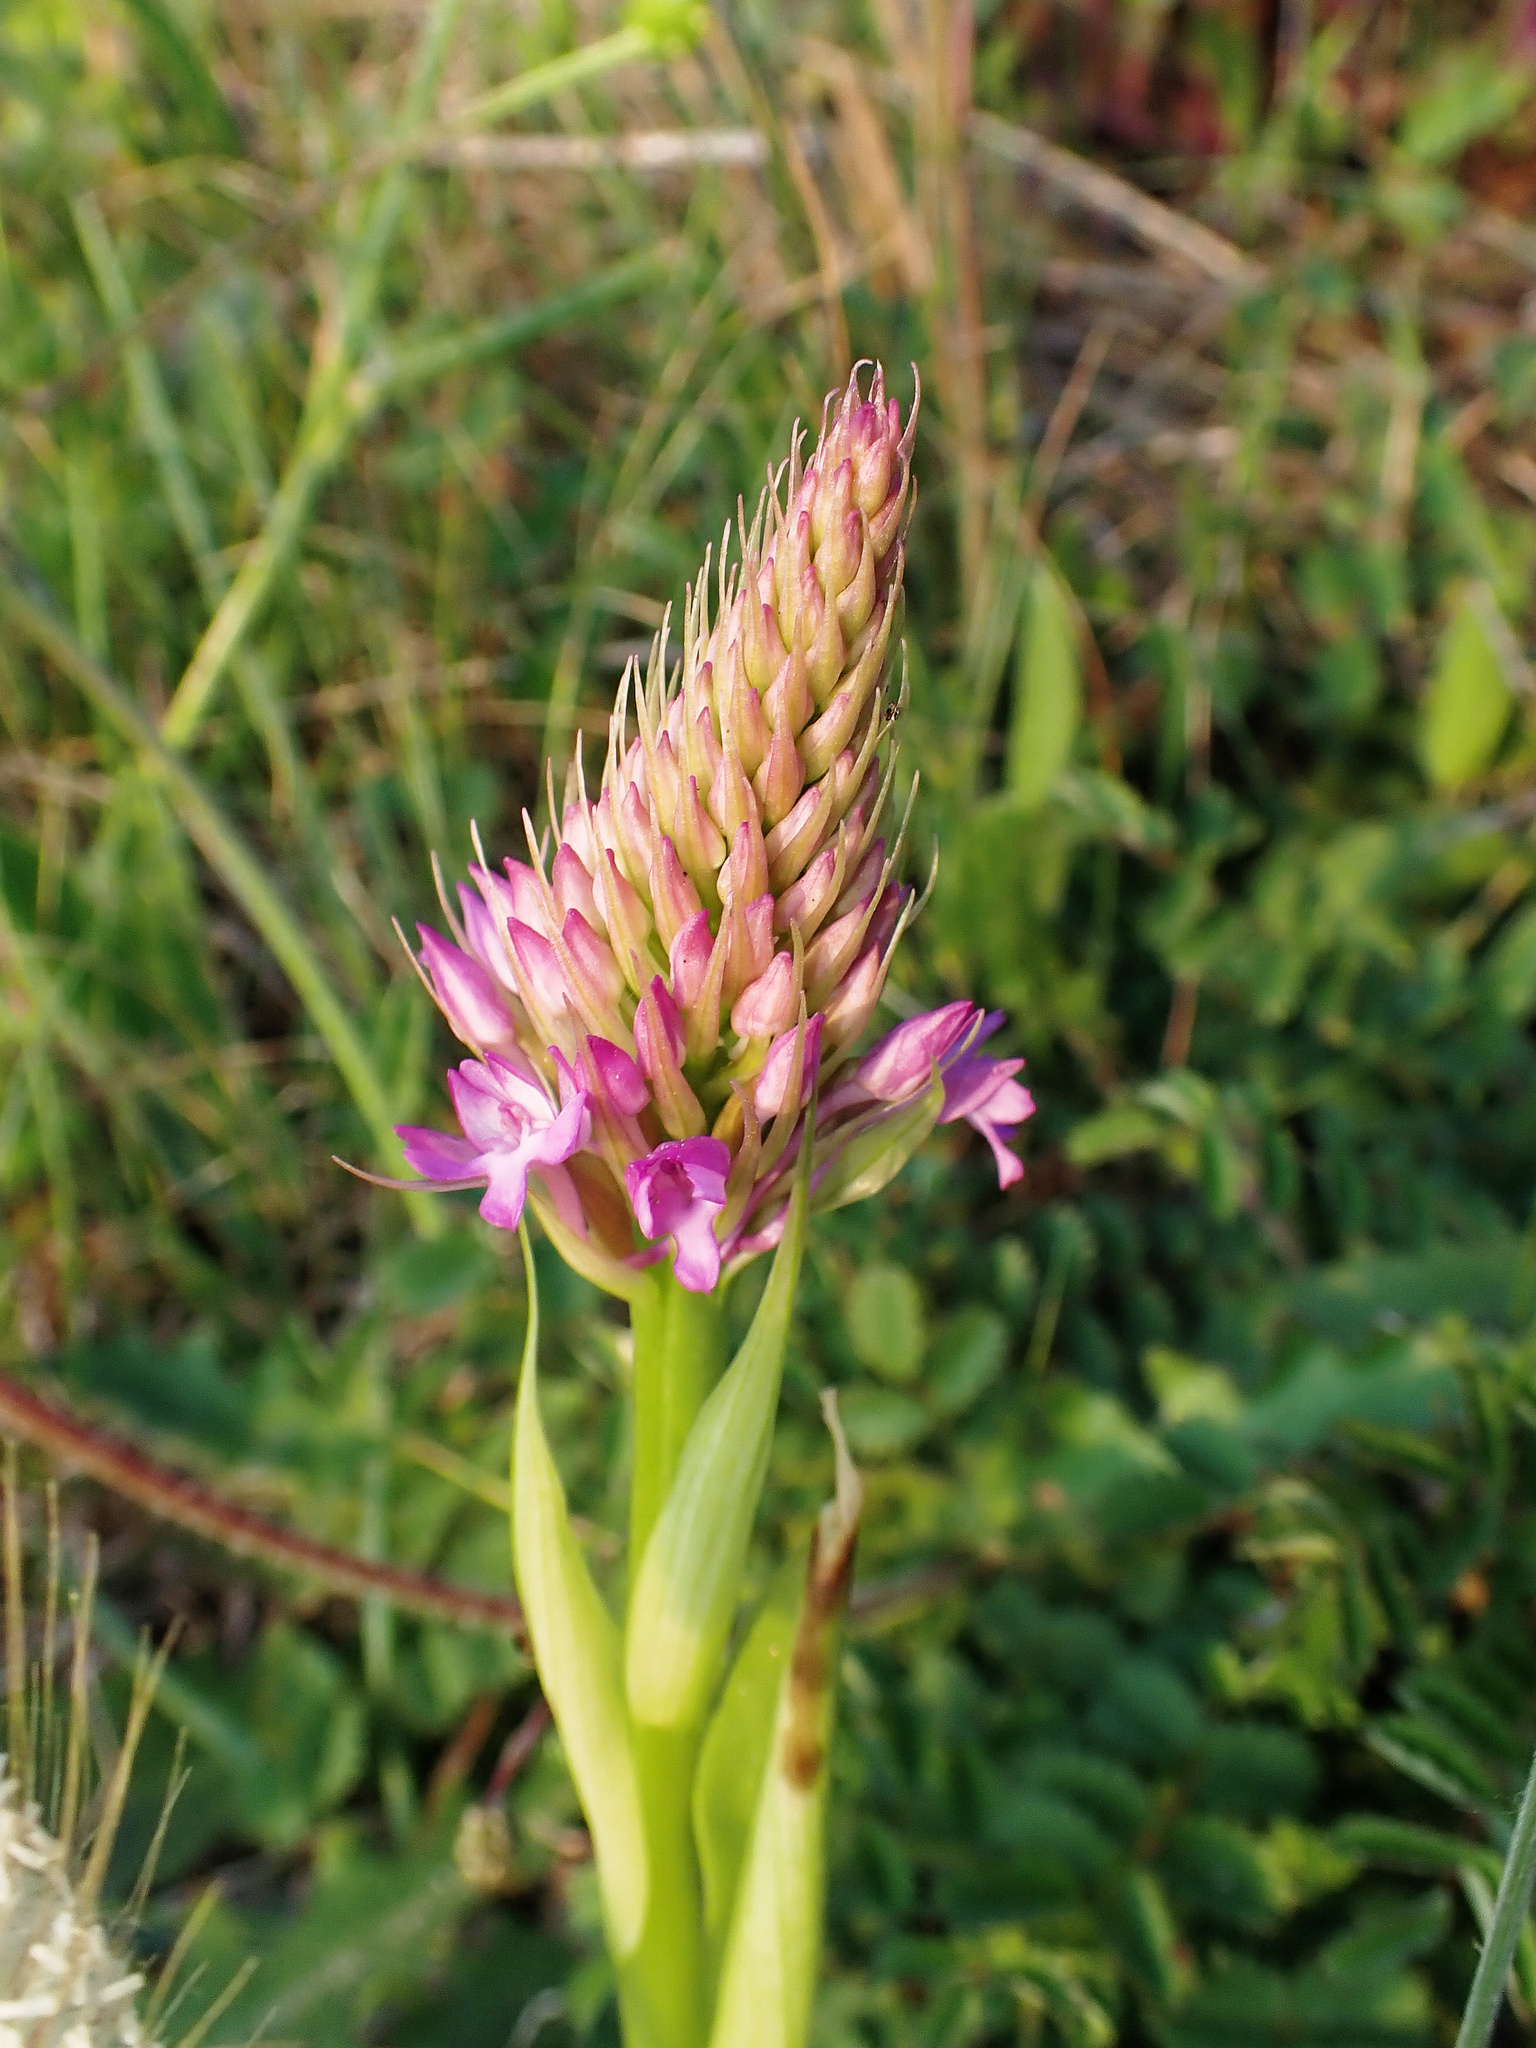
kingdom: Plantae
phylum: Tracheophyta
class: Liliopsida
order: Asparagales
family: Orchidaceae
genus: Anacamptis
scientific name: Anacamptis pyramidalis
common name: Pyramidal orchid
